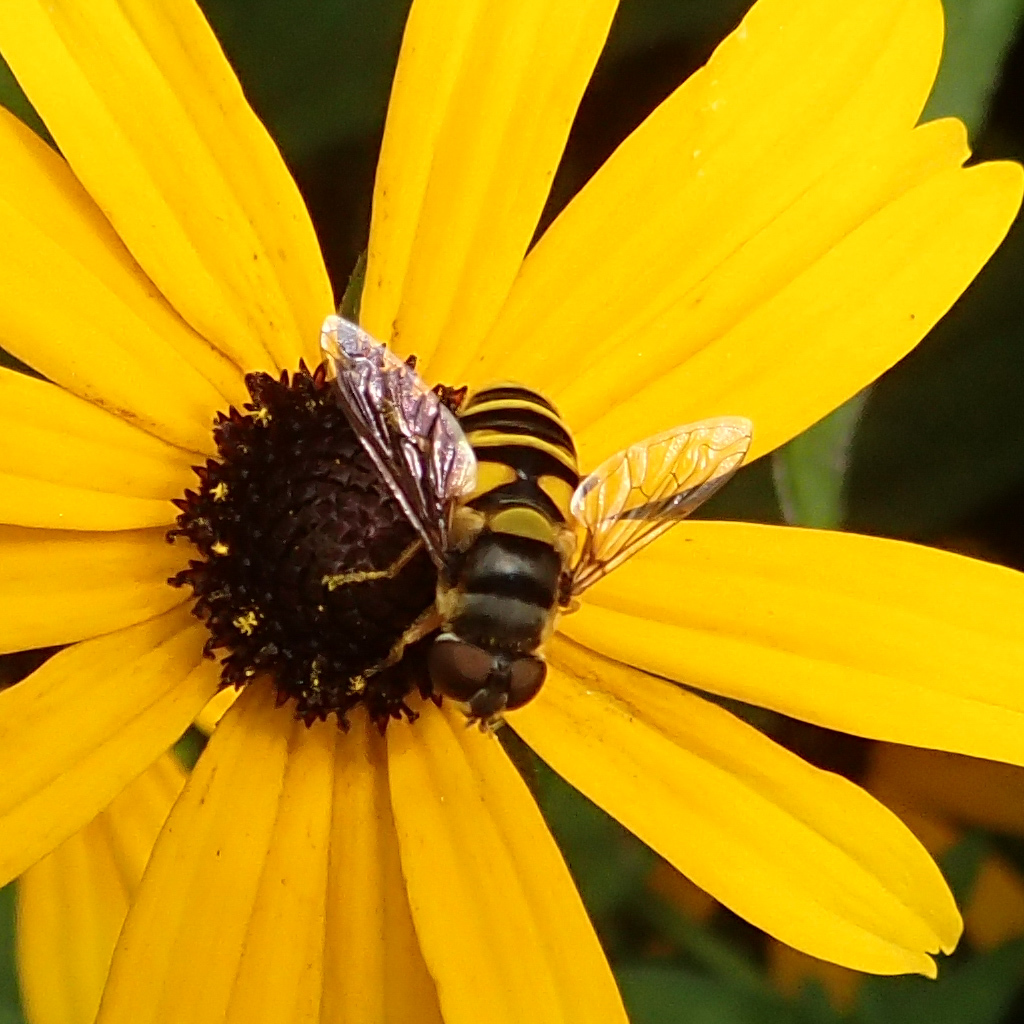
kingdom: Animalia
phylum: Arthropoda
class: Insecta
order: Diptera
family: Syrphidae
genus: Eristalis
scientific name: Eristalis transversa
